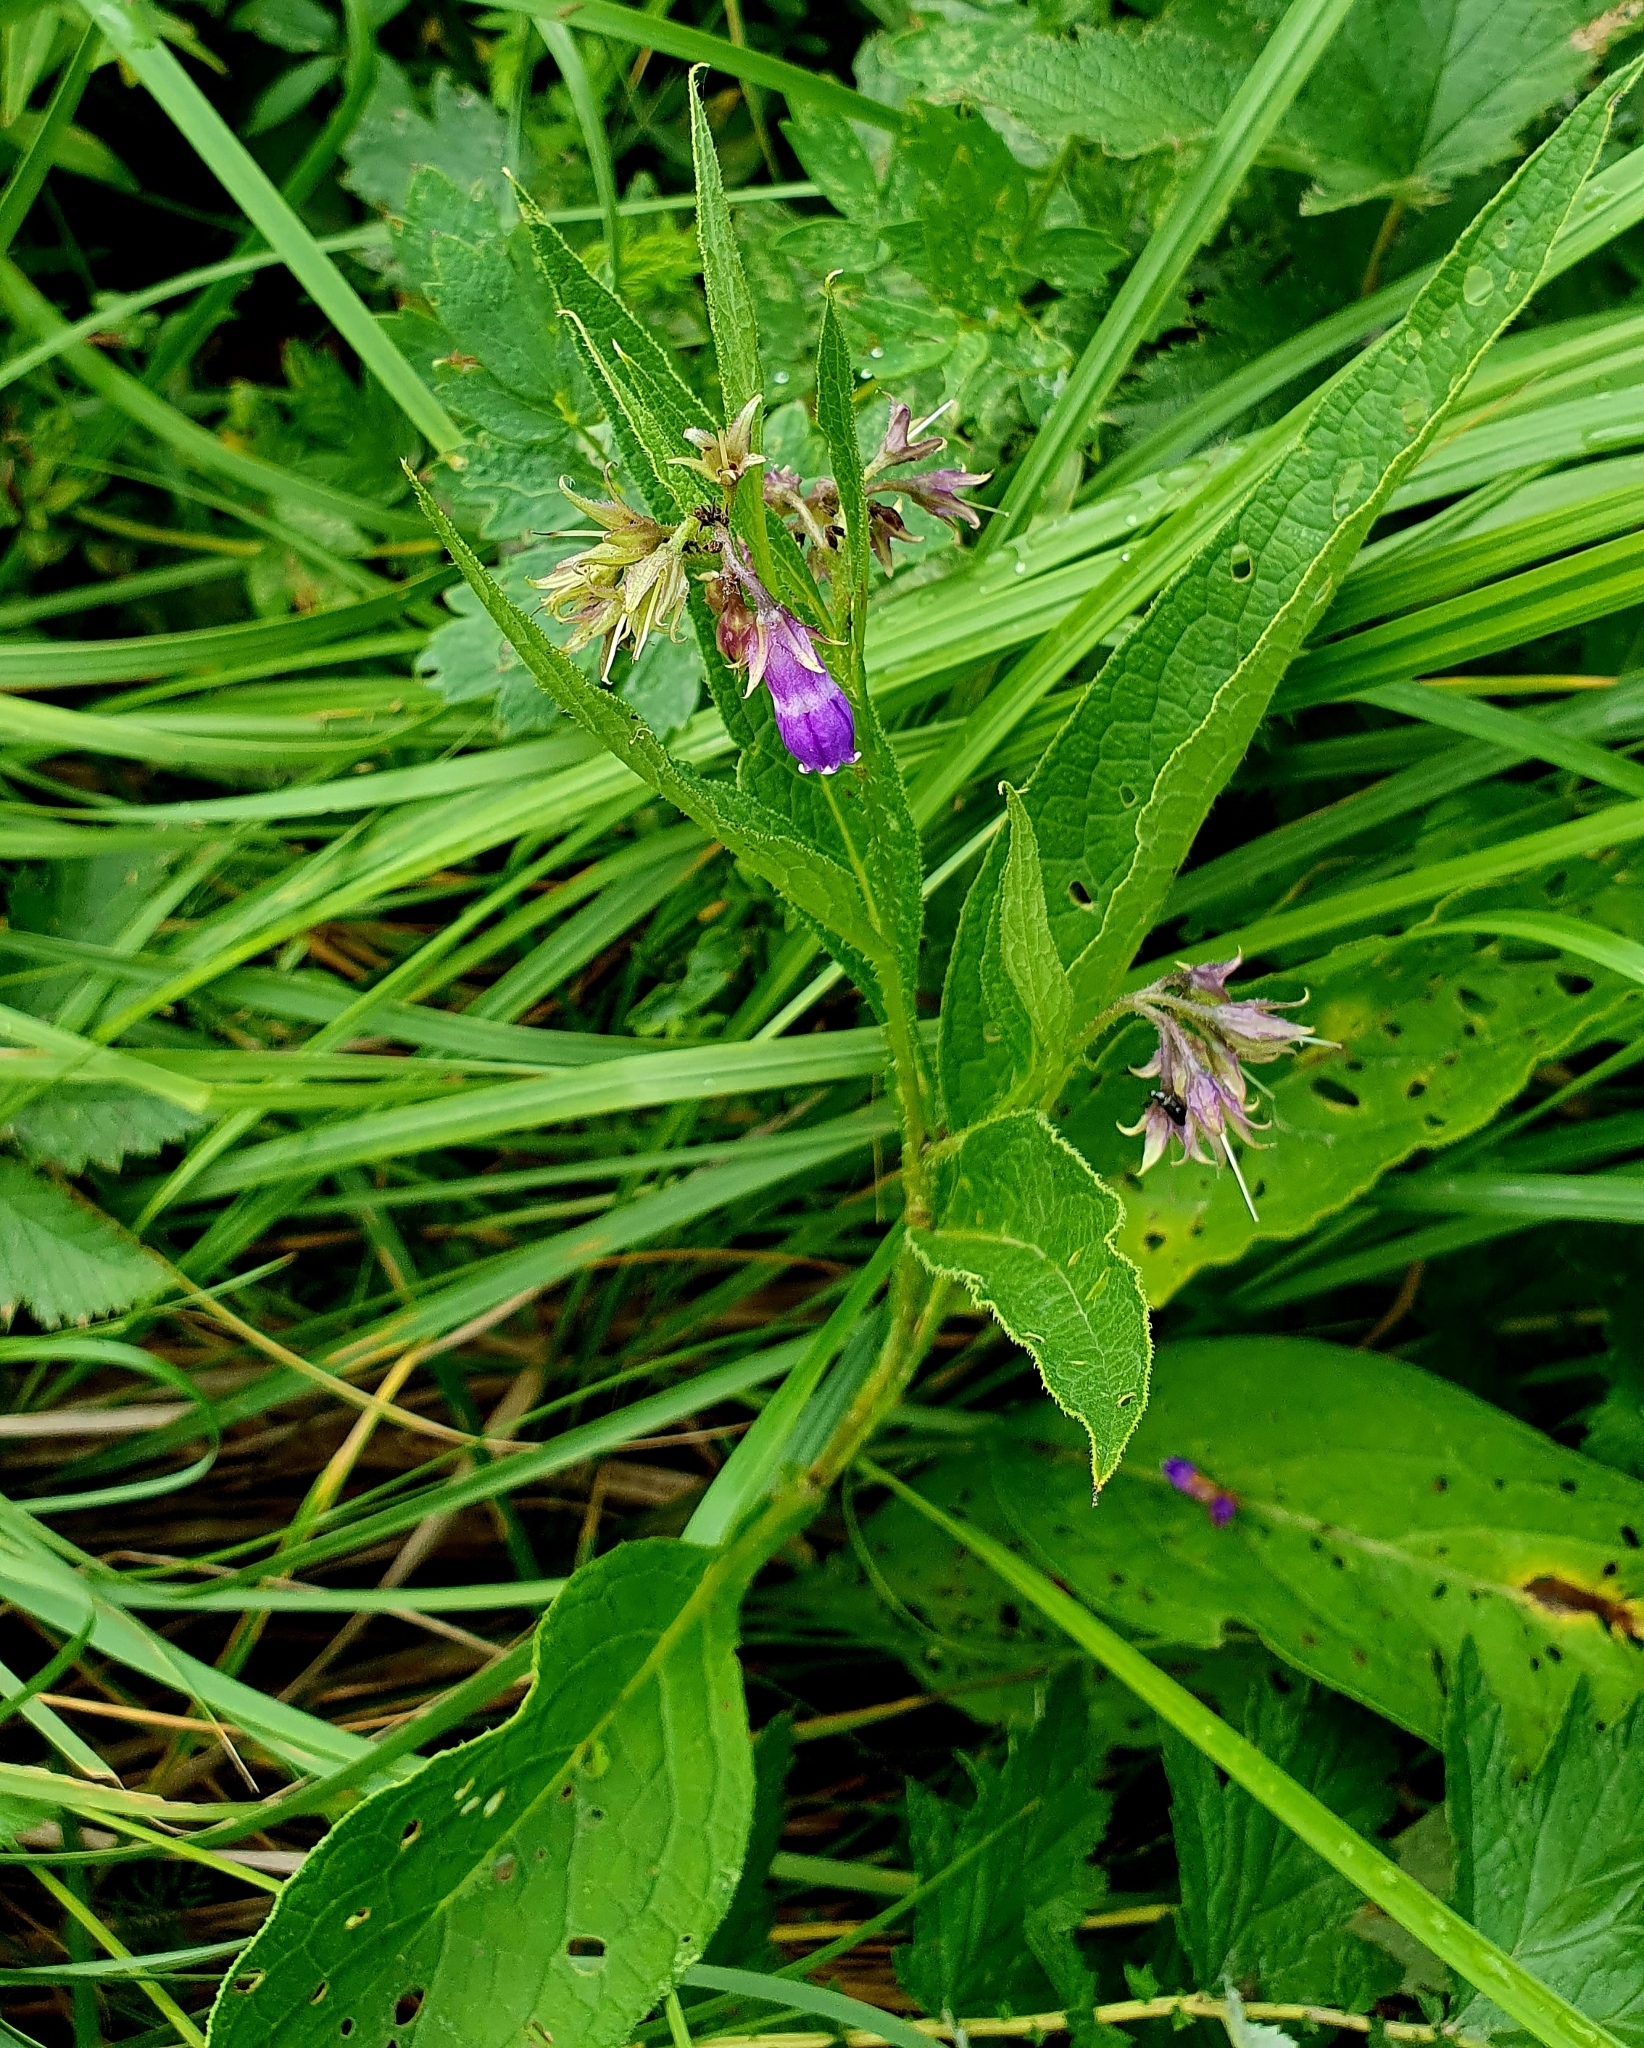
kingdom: Plantae
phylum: Tracheophyta
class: Magnoliopsida
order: Boraginales
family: Boraginaceae
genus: Symphytum
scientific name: Symphytum officinale
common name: Common comfrey
